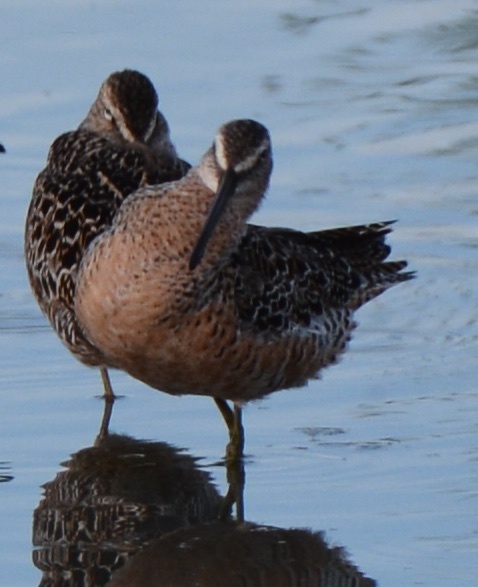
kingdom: Animalia
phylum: Chordata
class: Aves
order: Charadriiformes
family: Scolopacidae
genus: Limnodromus
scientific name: Limnodromus scolopaceus
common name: Long-billed dowitcher
